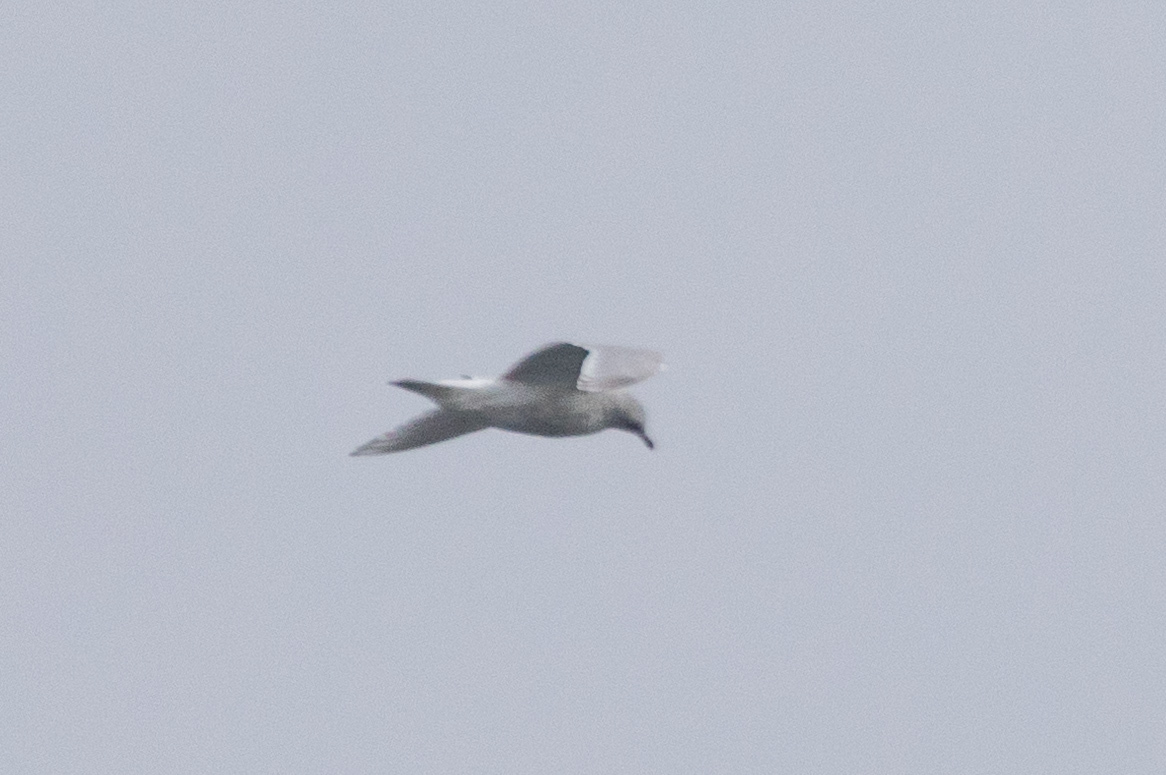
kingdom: Animalia
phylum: Chordata
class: Aves
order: Charadriiformes
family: Laridae
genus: Larus
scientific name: Larus glaucoides
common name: Iceland gull
